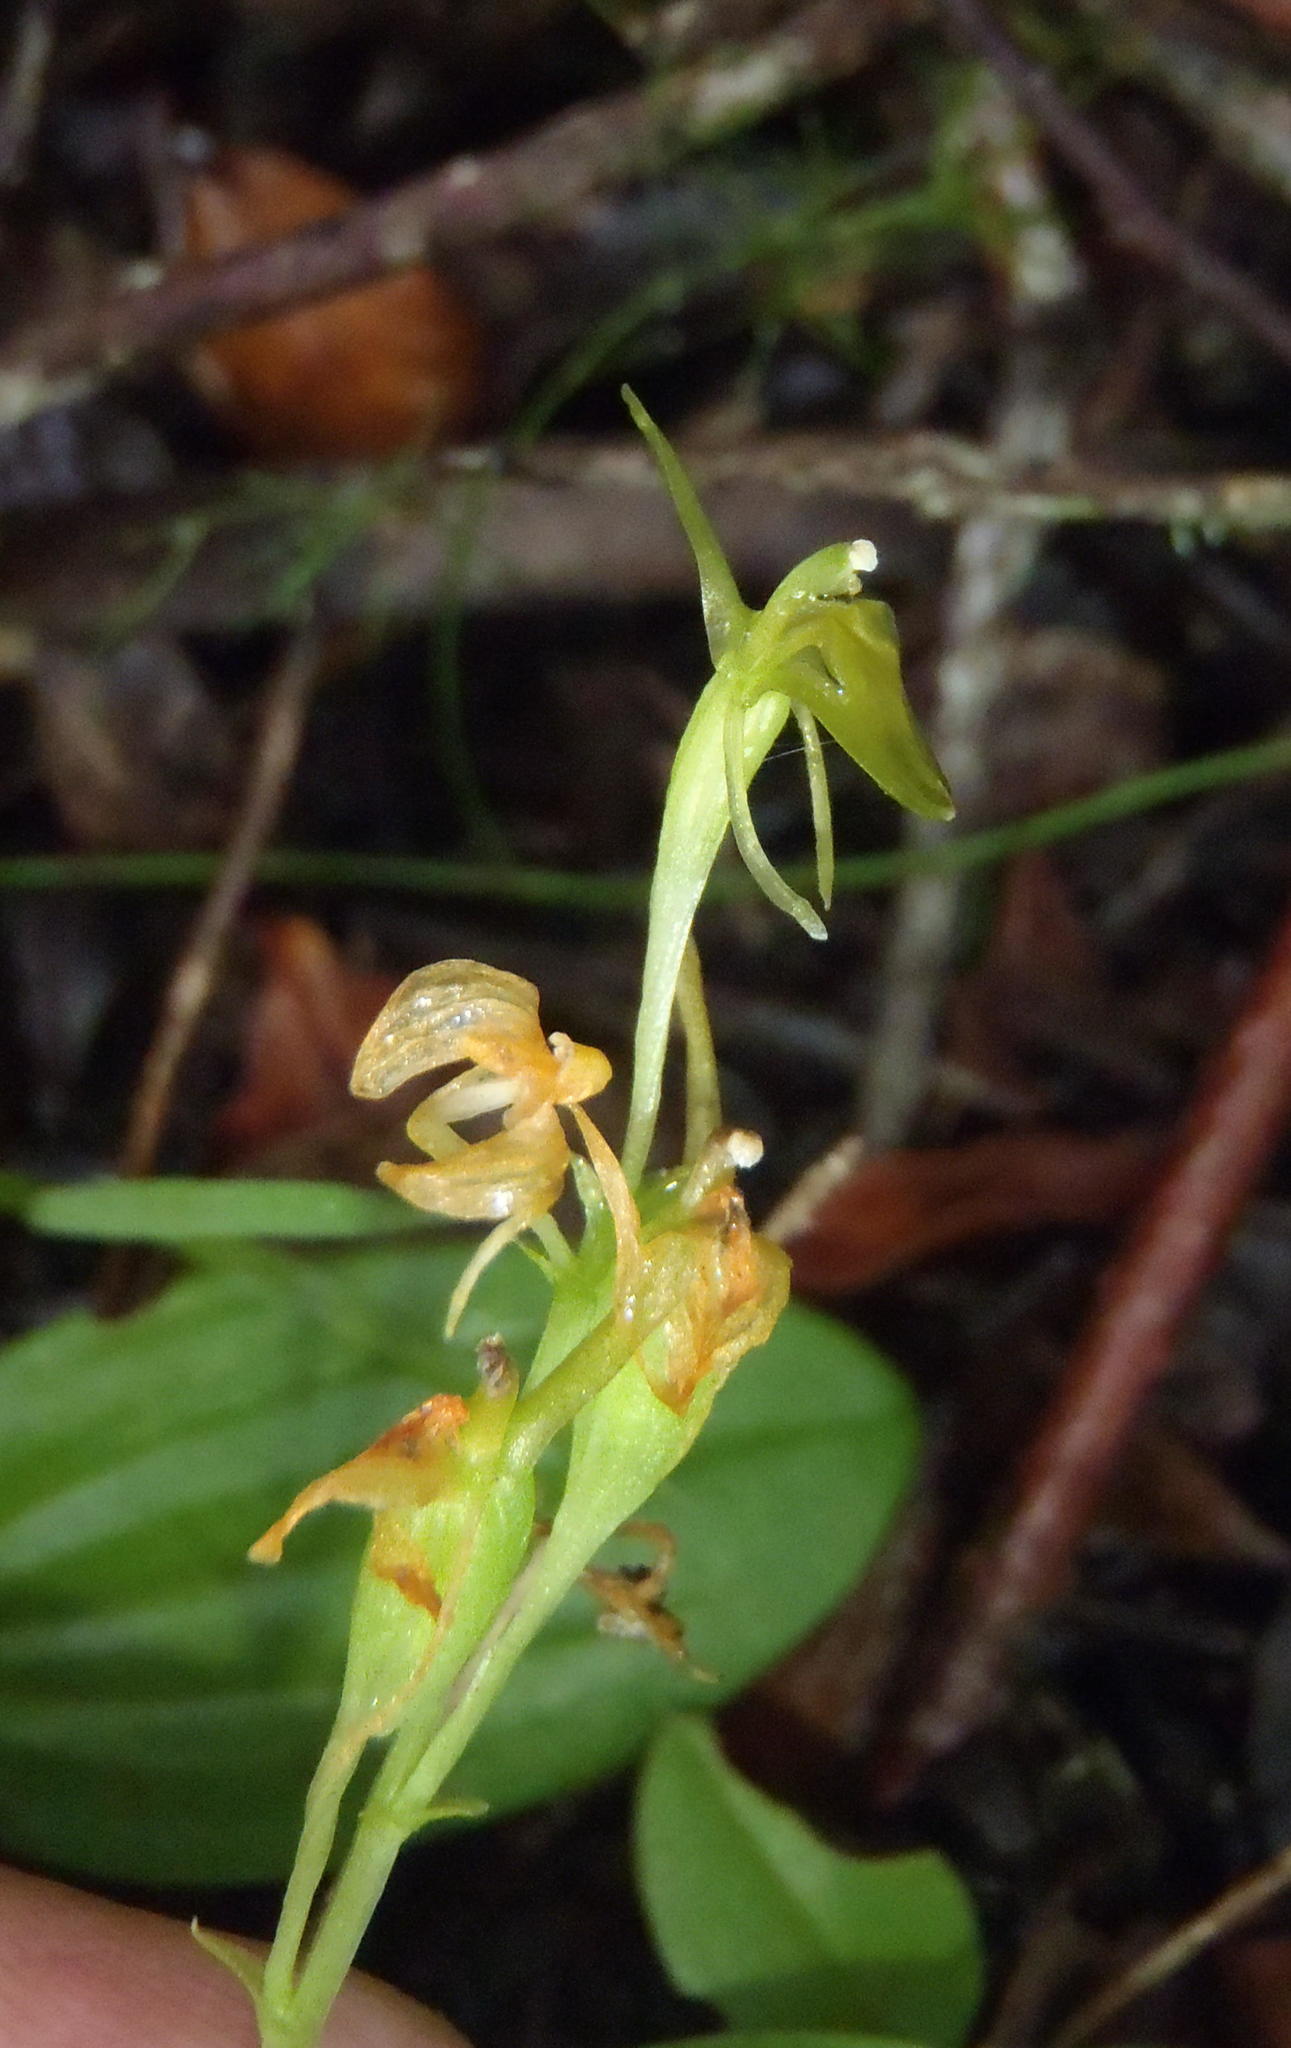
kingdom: Plantae
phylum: Tracheophyta
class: Liliopsida
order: Asparagales
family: Orchidaceae
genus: Liparis
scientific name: Liparis remota
